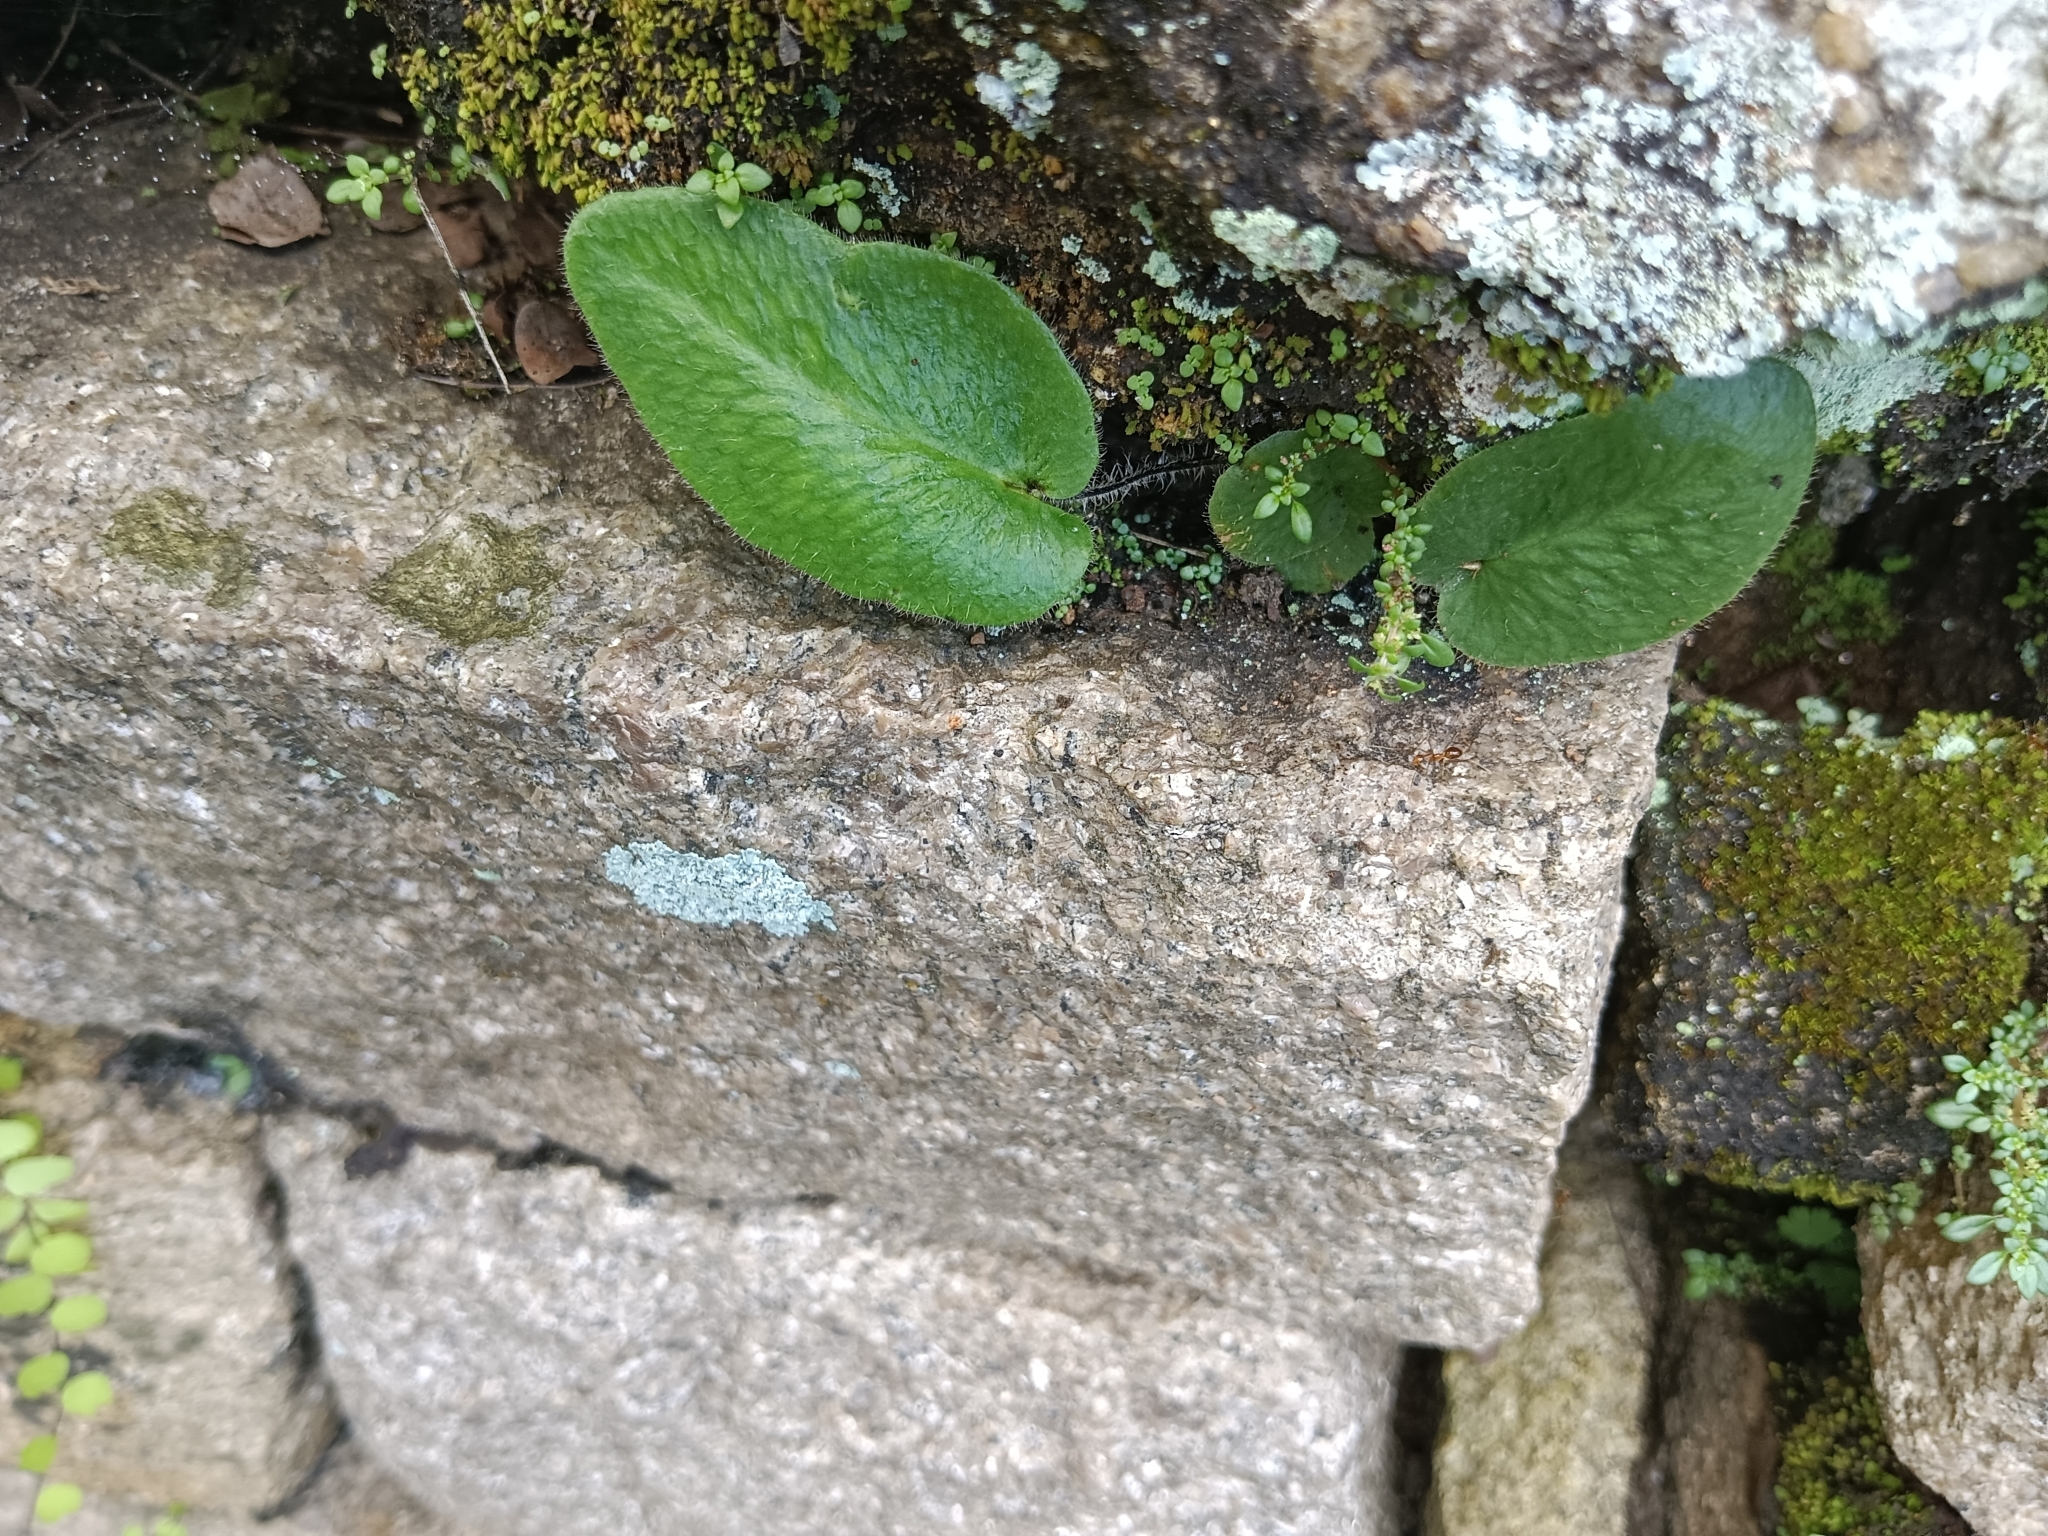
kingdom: Plantae
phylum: Tracheophyta
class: Polypodiopsida
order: Polypodiales
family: Pteridaceae
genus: Mickelopteris
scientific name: Mickelopteris cordata
